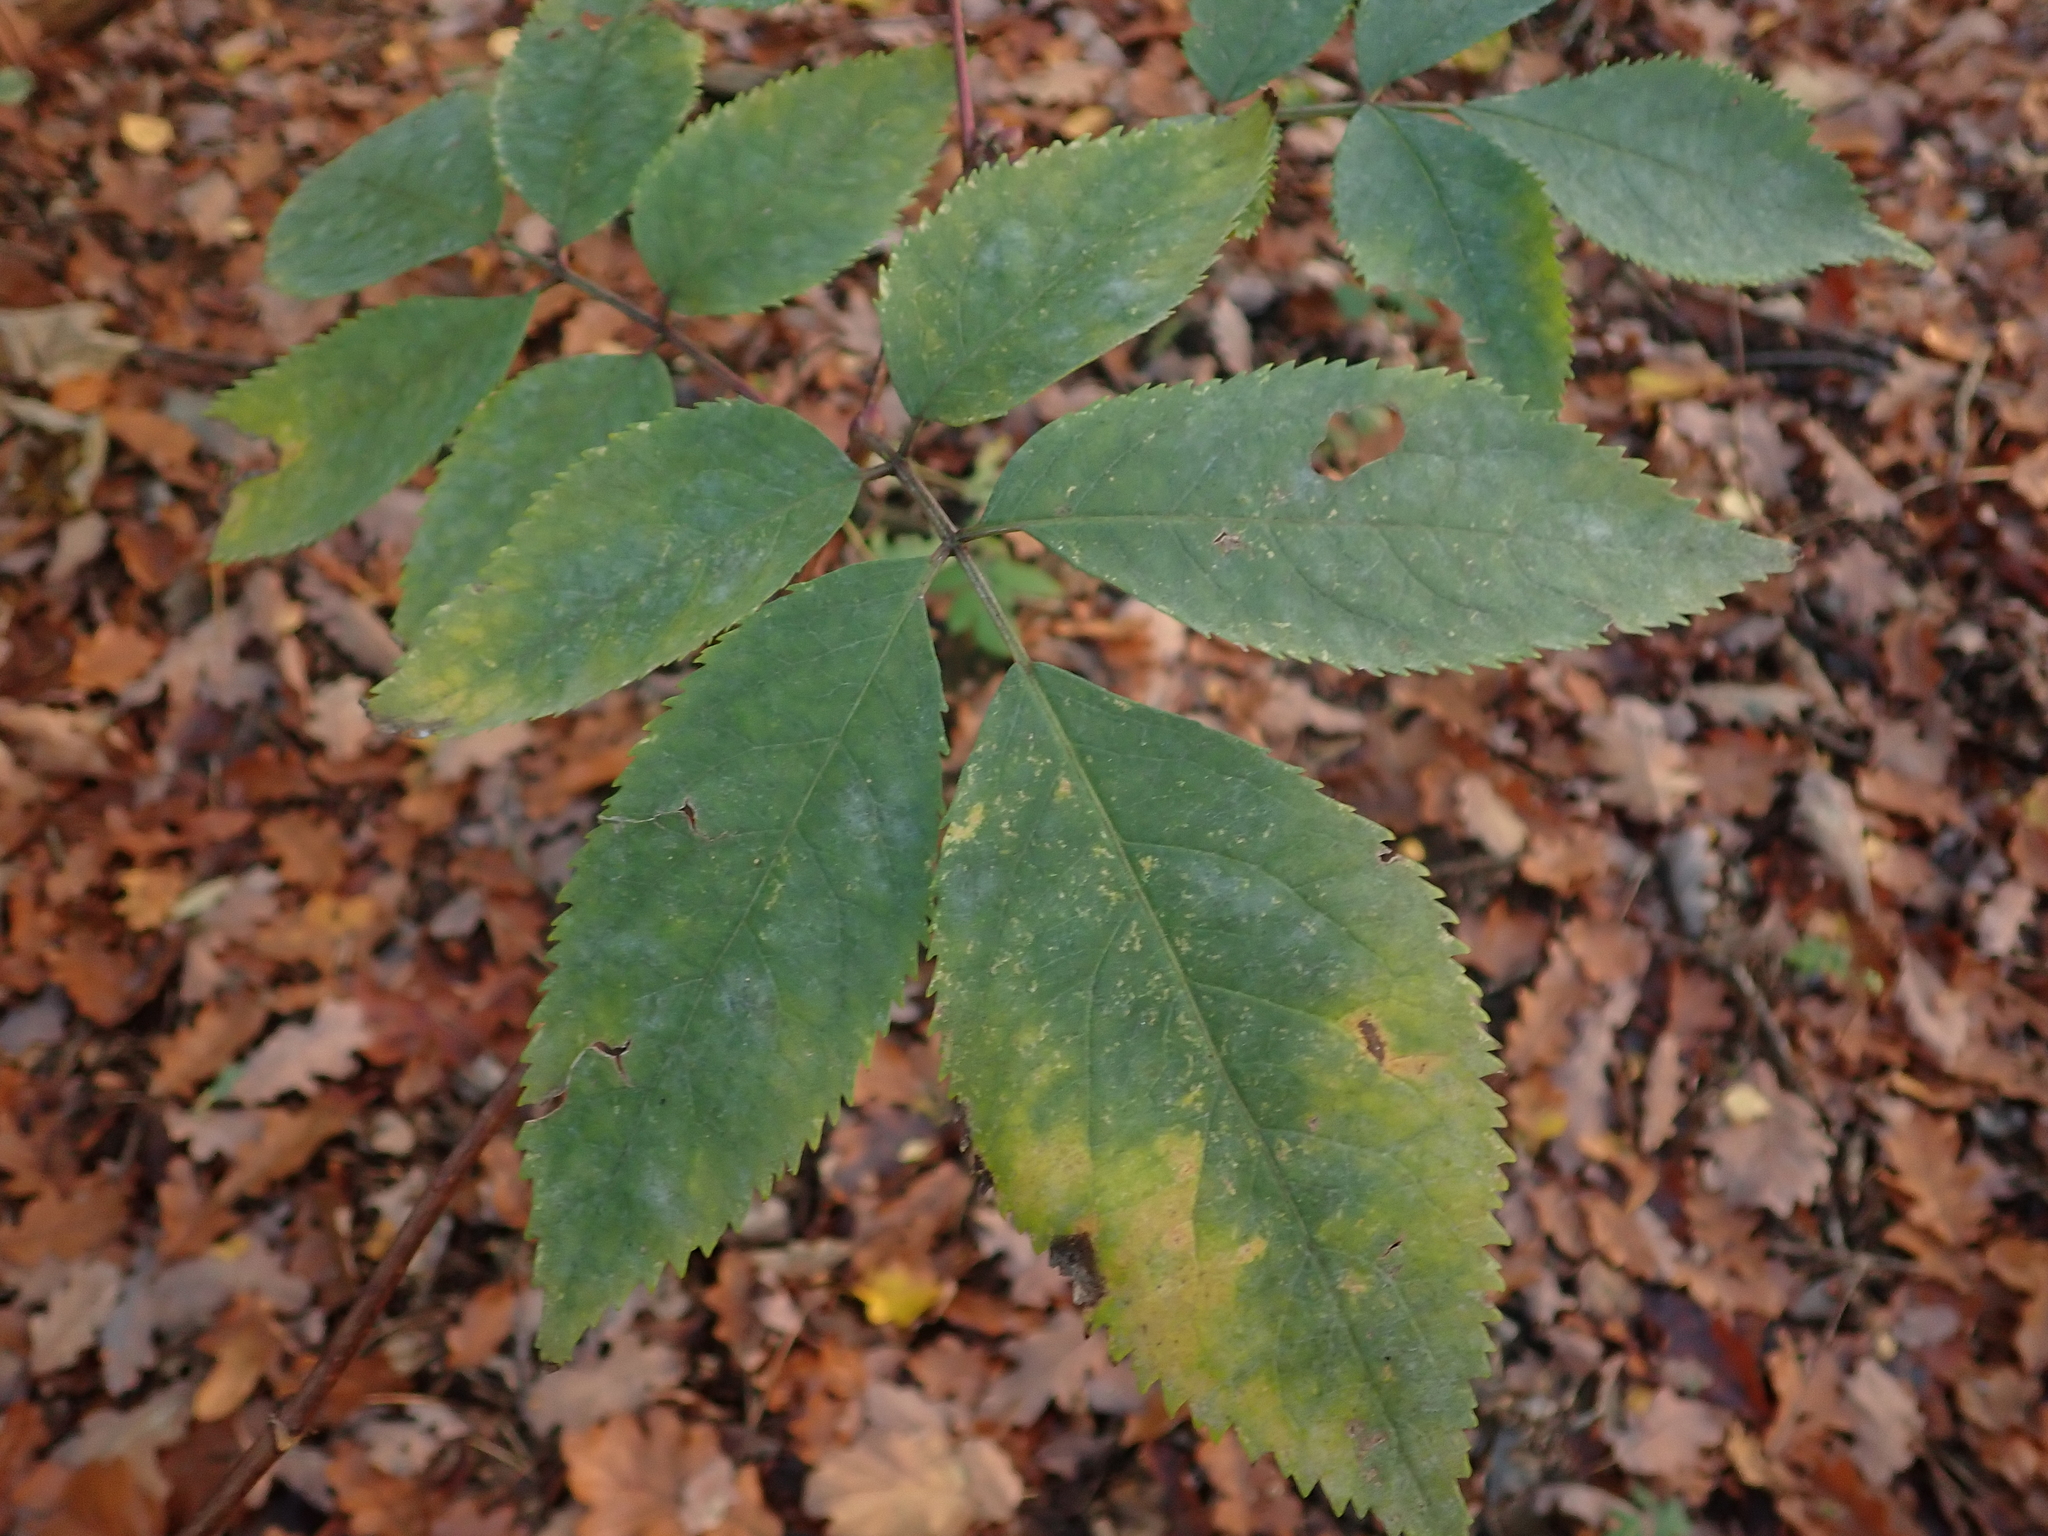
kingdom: Plantae
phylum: Tracheophyta
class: Magnoliopsida
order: Dipsacales
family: Viburnaceae
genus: Sambucus
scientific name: Sambucus nigra
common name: Elder
